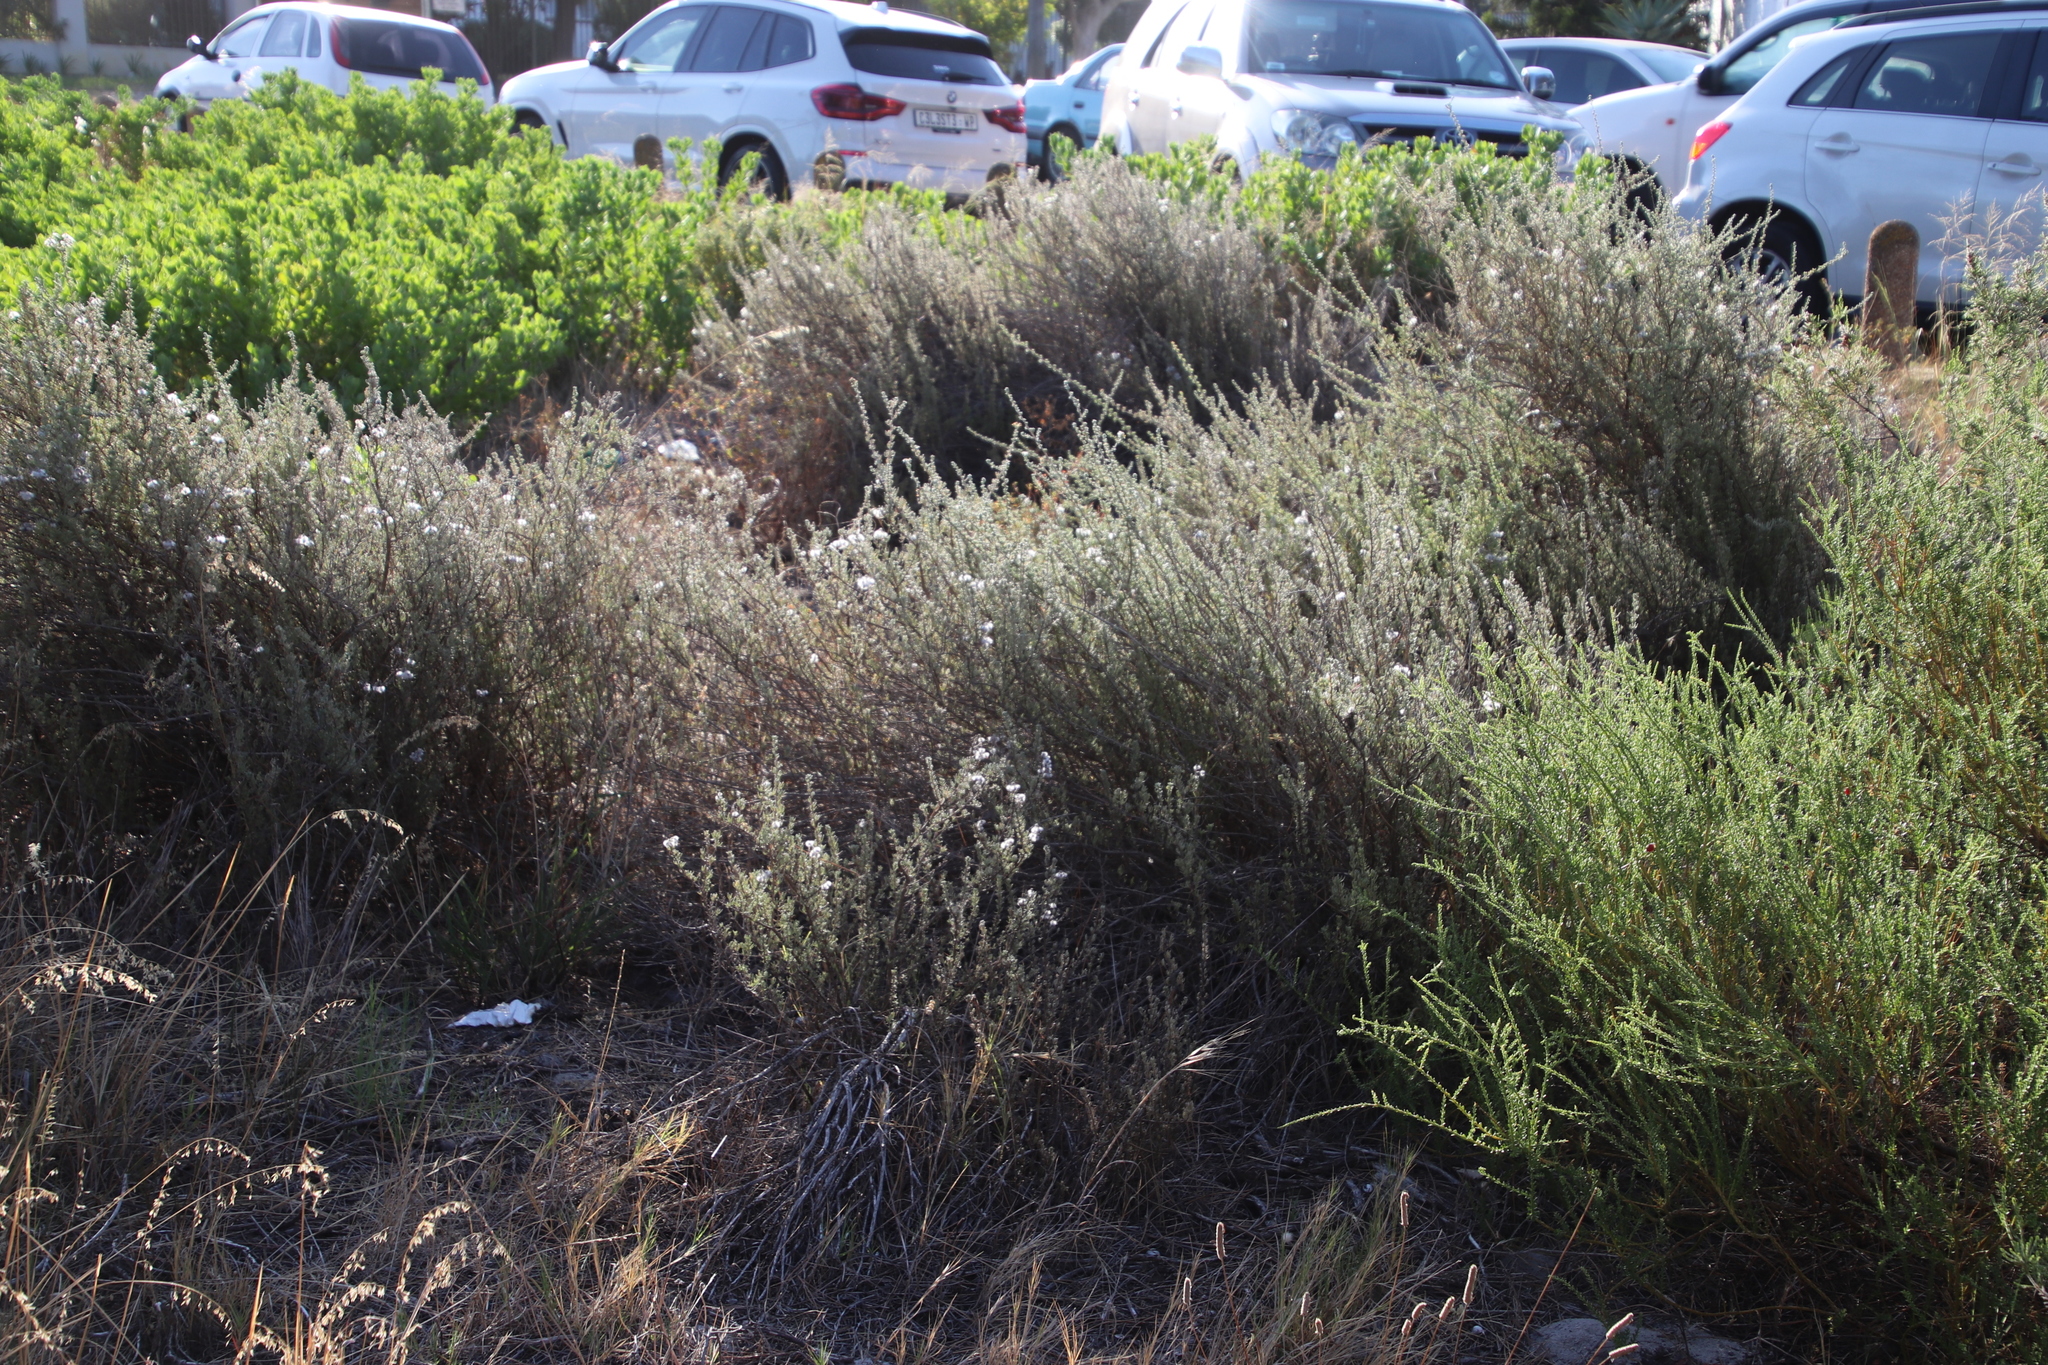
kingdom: Plantae
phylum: Tracheophyta
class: Magnoliopsida
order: Asterales
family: Asteraceae
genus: Eriocephalus
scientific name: Eriocephalus africanus
